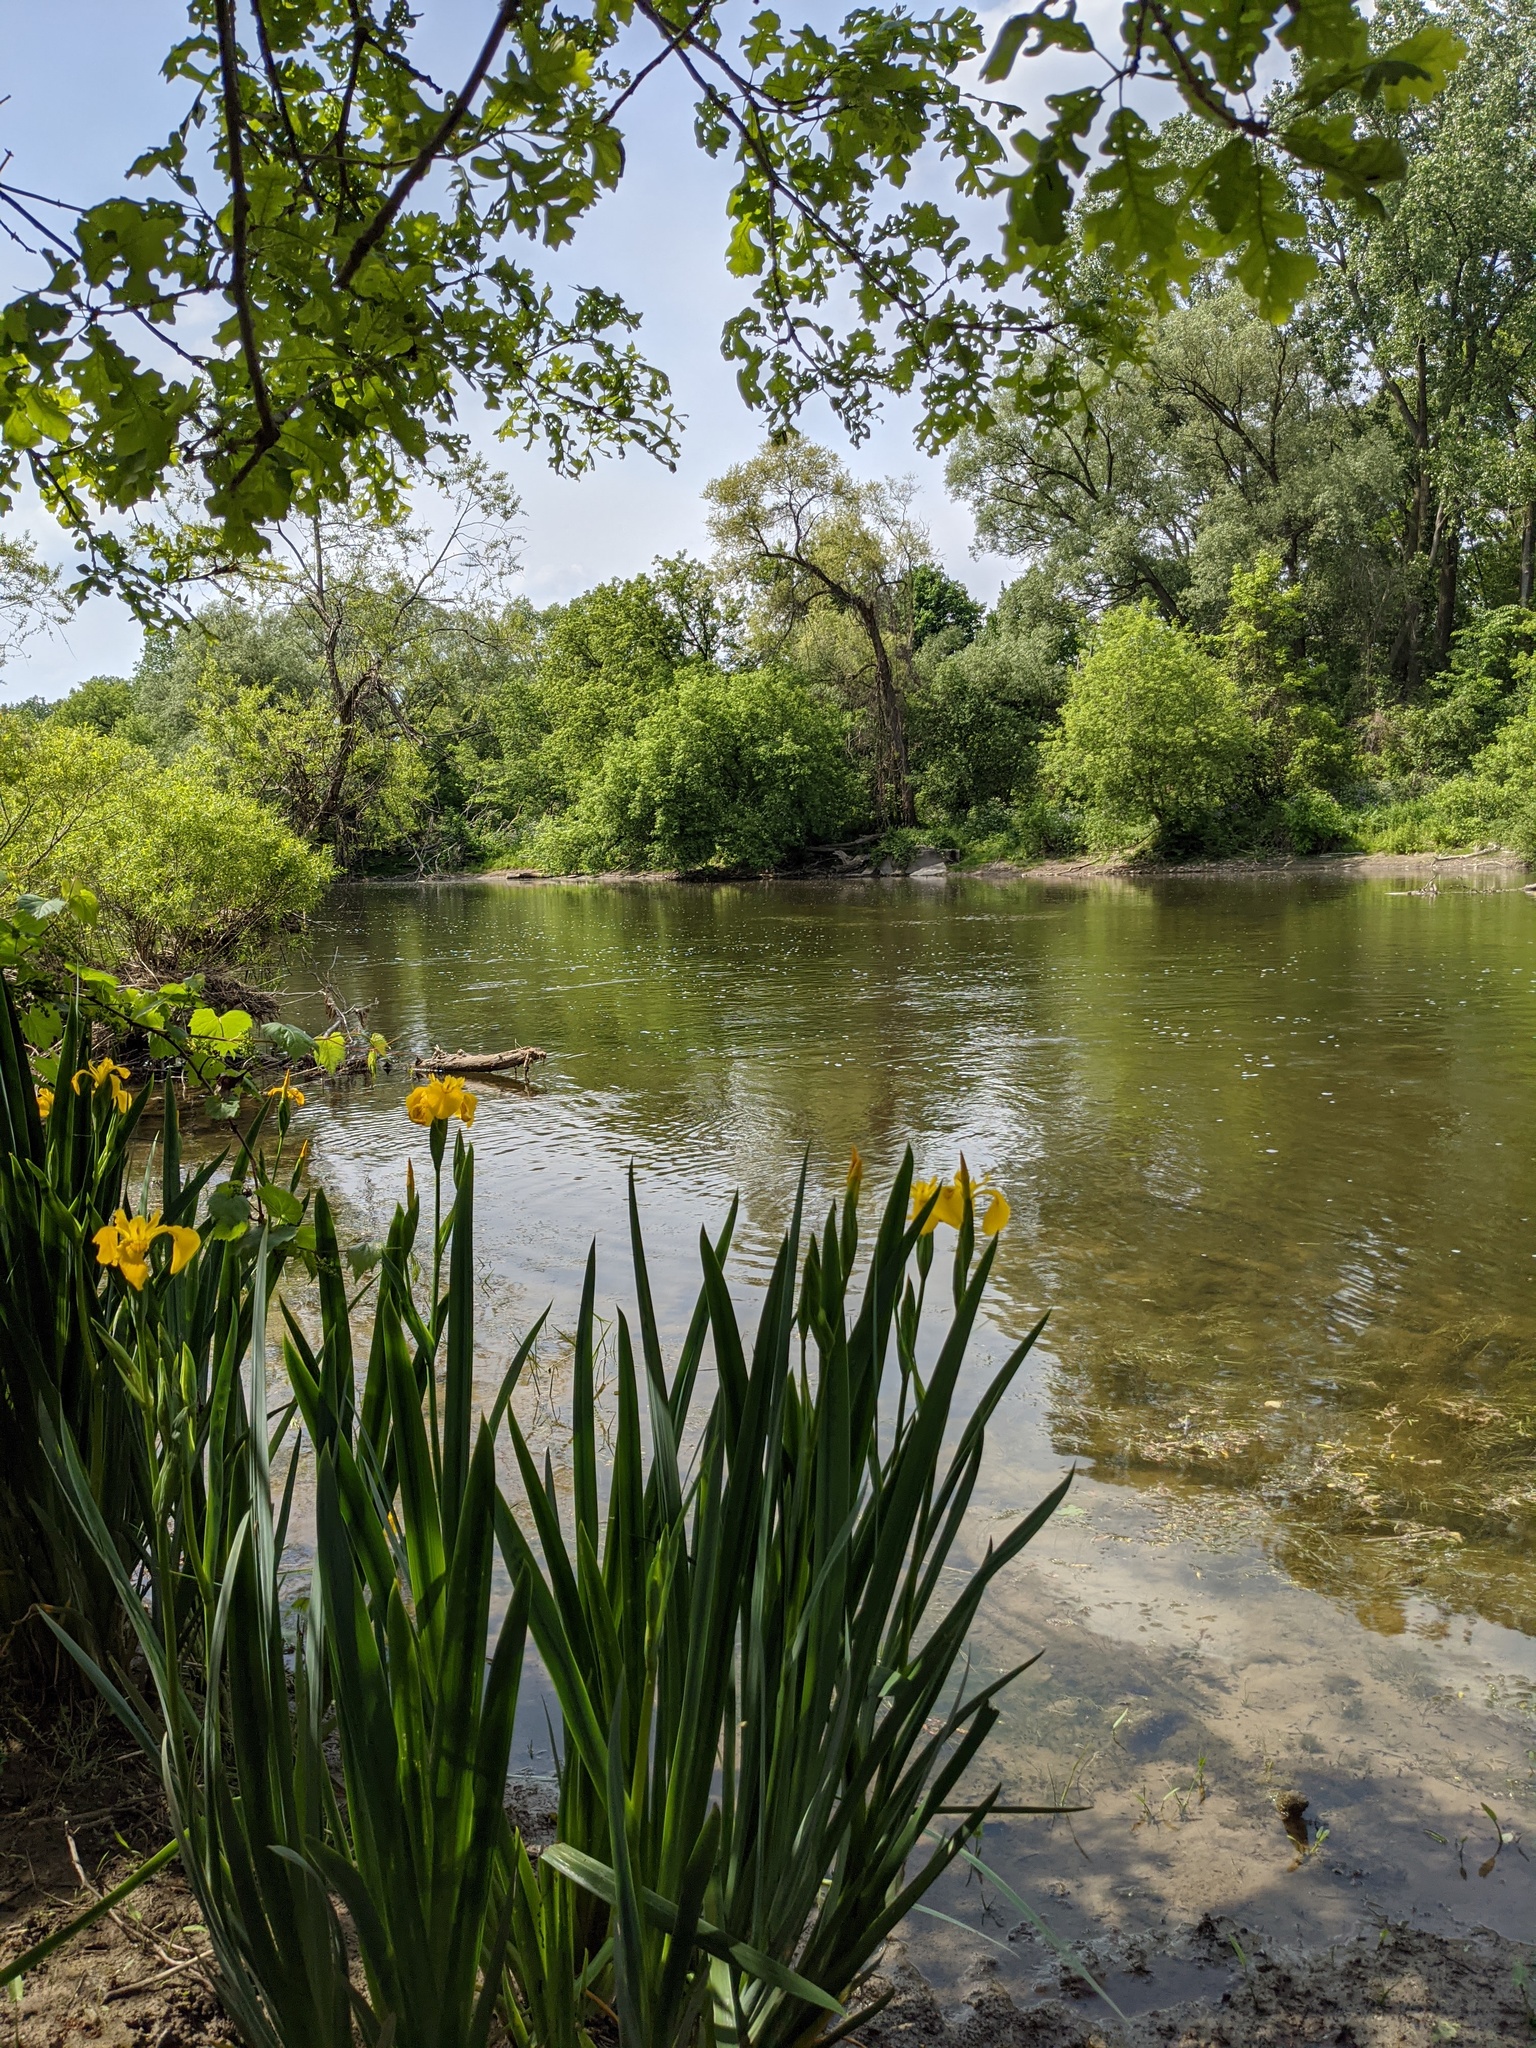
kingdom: Plantae
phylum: Tracheophyta
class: Liliopsida
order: Asparagales
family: Iridaceae
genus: Iris
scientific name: Iris pseudacorus
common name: Yellow flag
